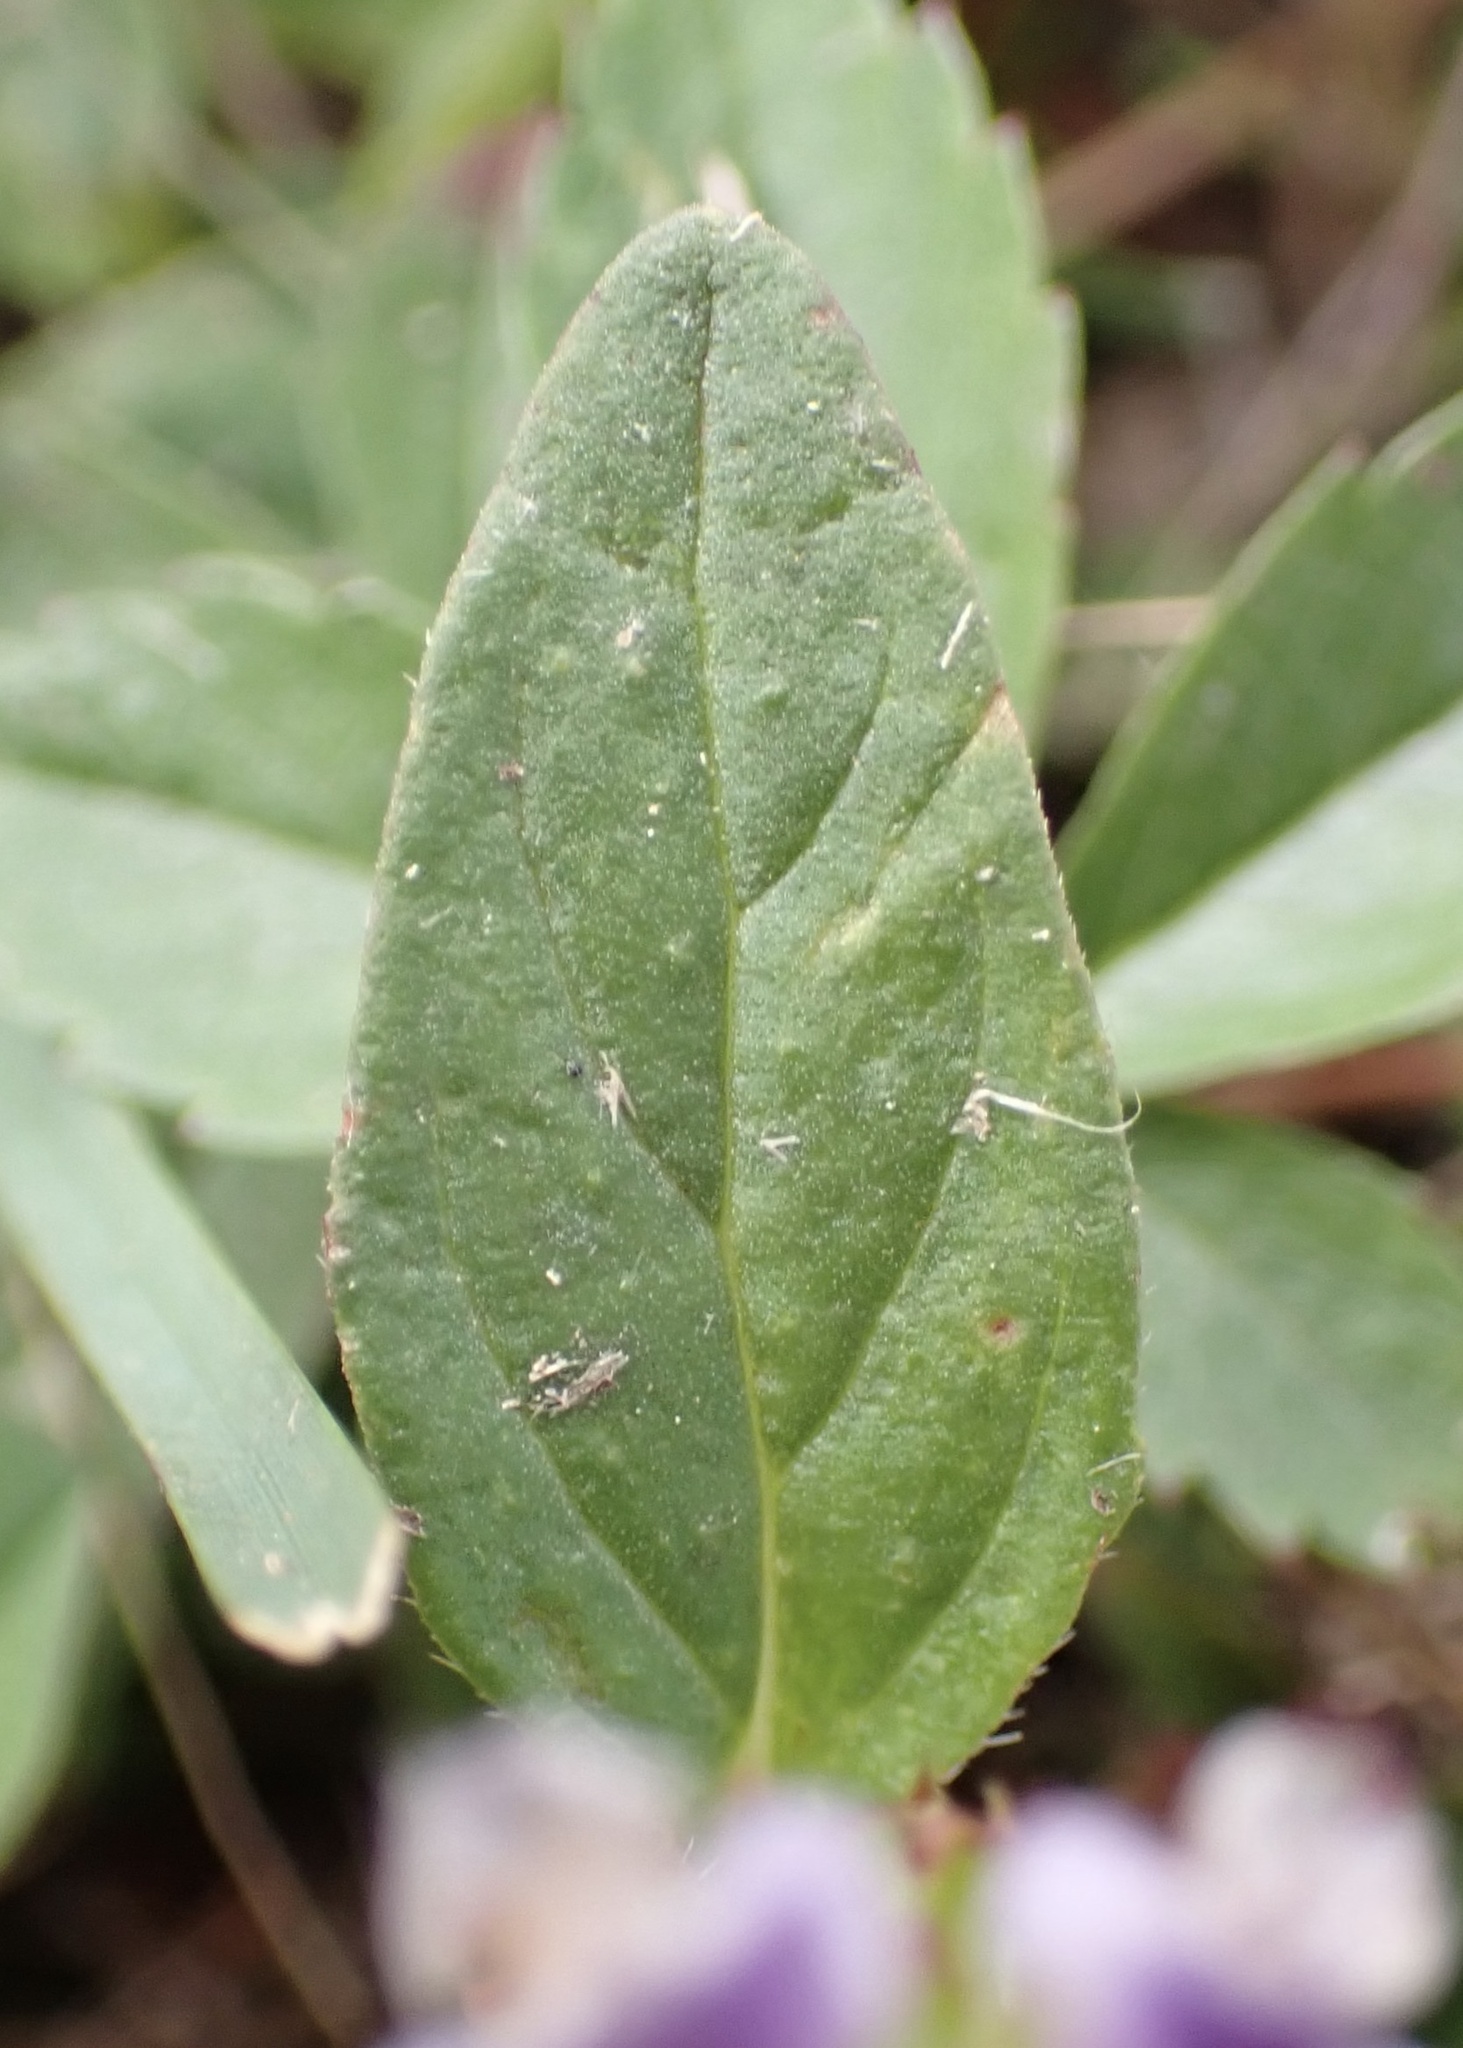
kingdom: Plantae
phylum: Tracheophyta
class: Magnoliopsida
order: Lamiales
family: Lamiaceae
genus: Prunella
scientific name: Prunella vulgaris
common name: Heal-all
